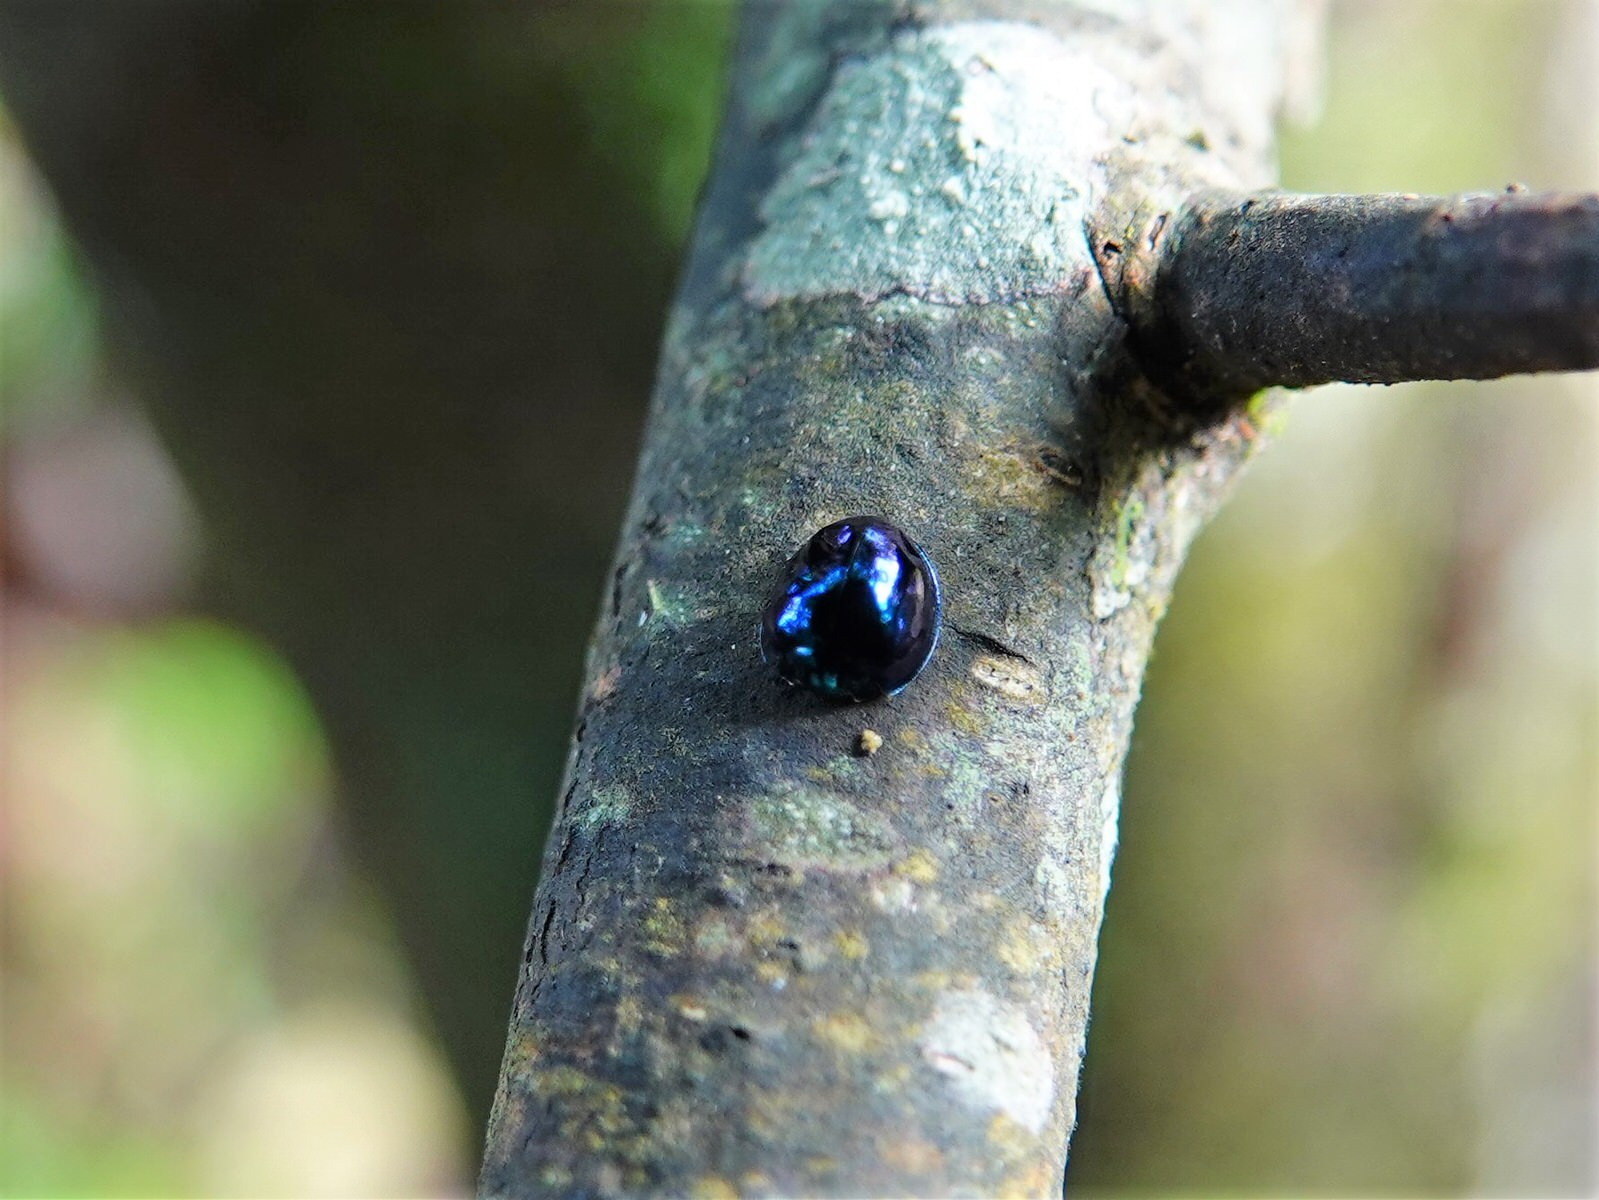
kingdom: Animalia
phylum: Arthropoda
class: Insecta
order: Coleoptera
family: Coccinellidae
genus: Halmus
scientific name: Halmus chalybeus
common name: Steel blue ladybird beetle
